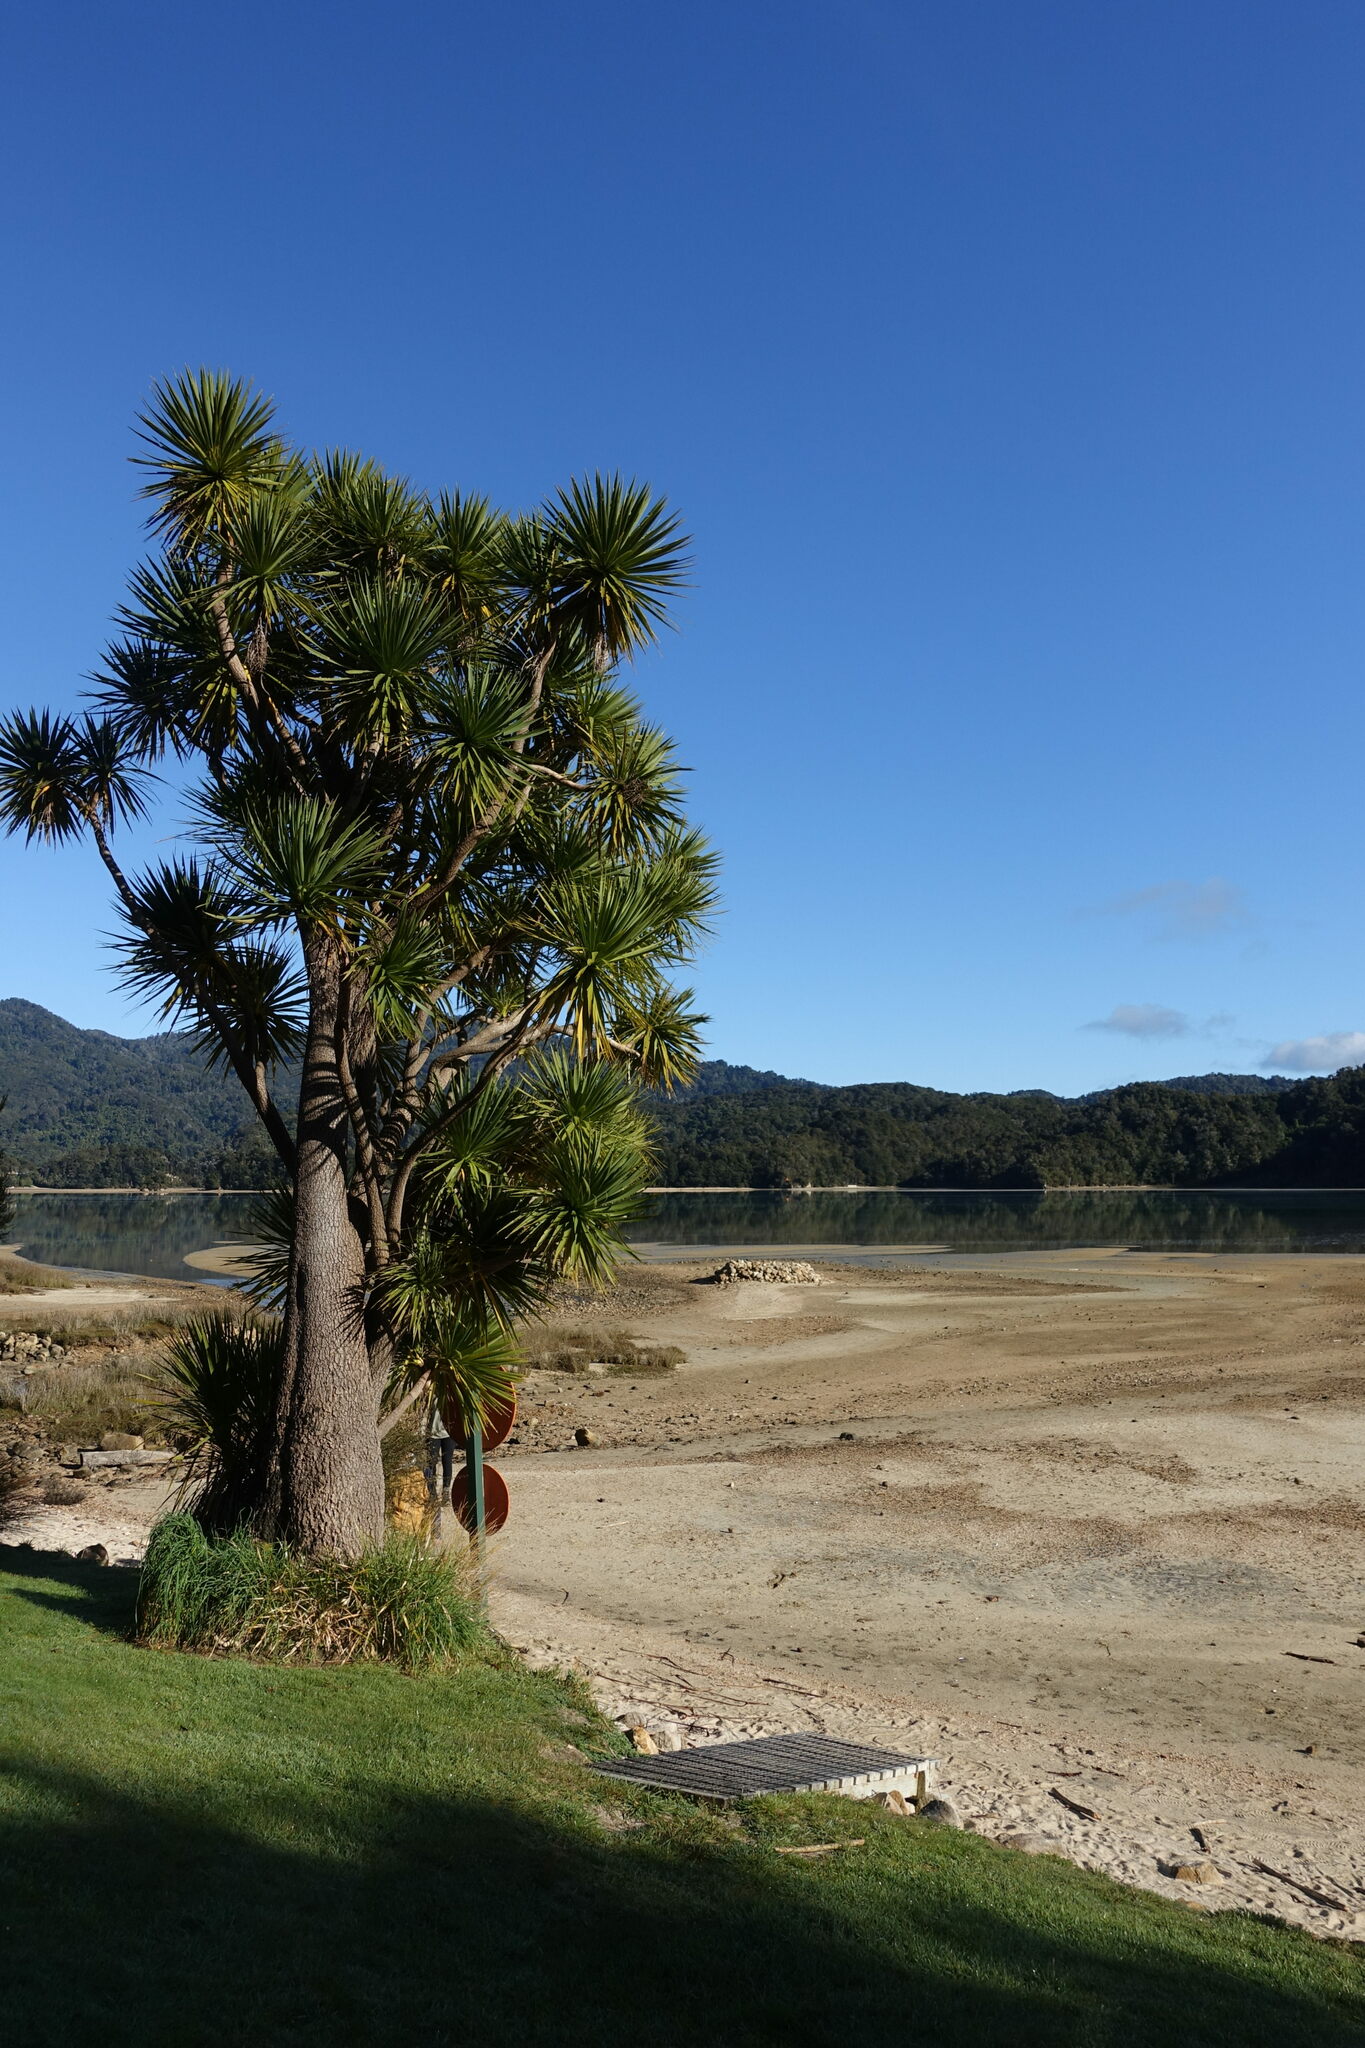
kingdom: Plantae
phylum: Tracheophyta
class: Liliopsida
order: Asparagales
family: Asparagaceae
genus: Cordyline
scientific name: Cordyline australis
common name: Cabbage-palm
